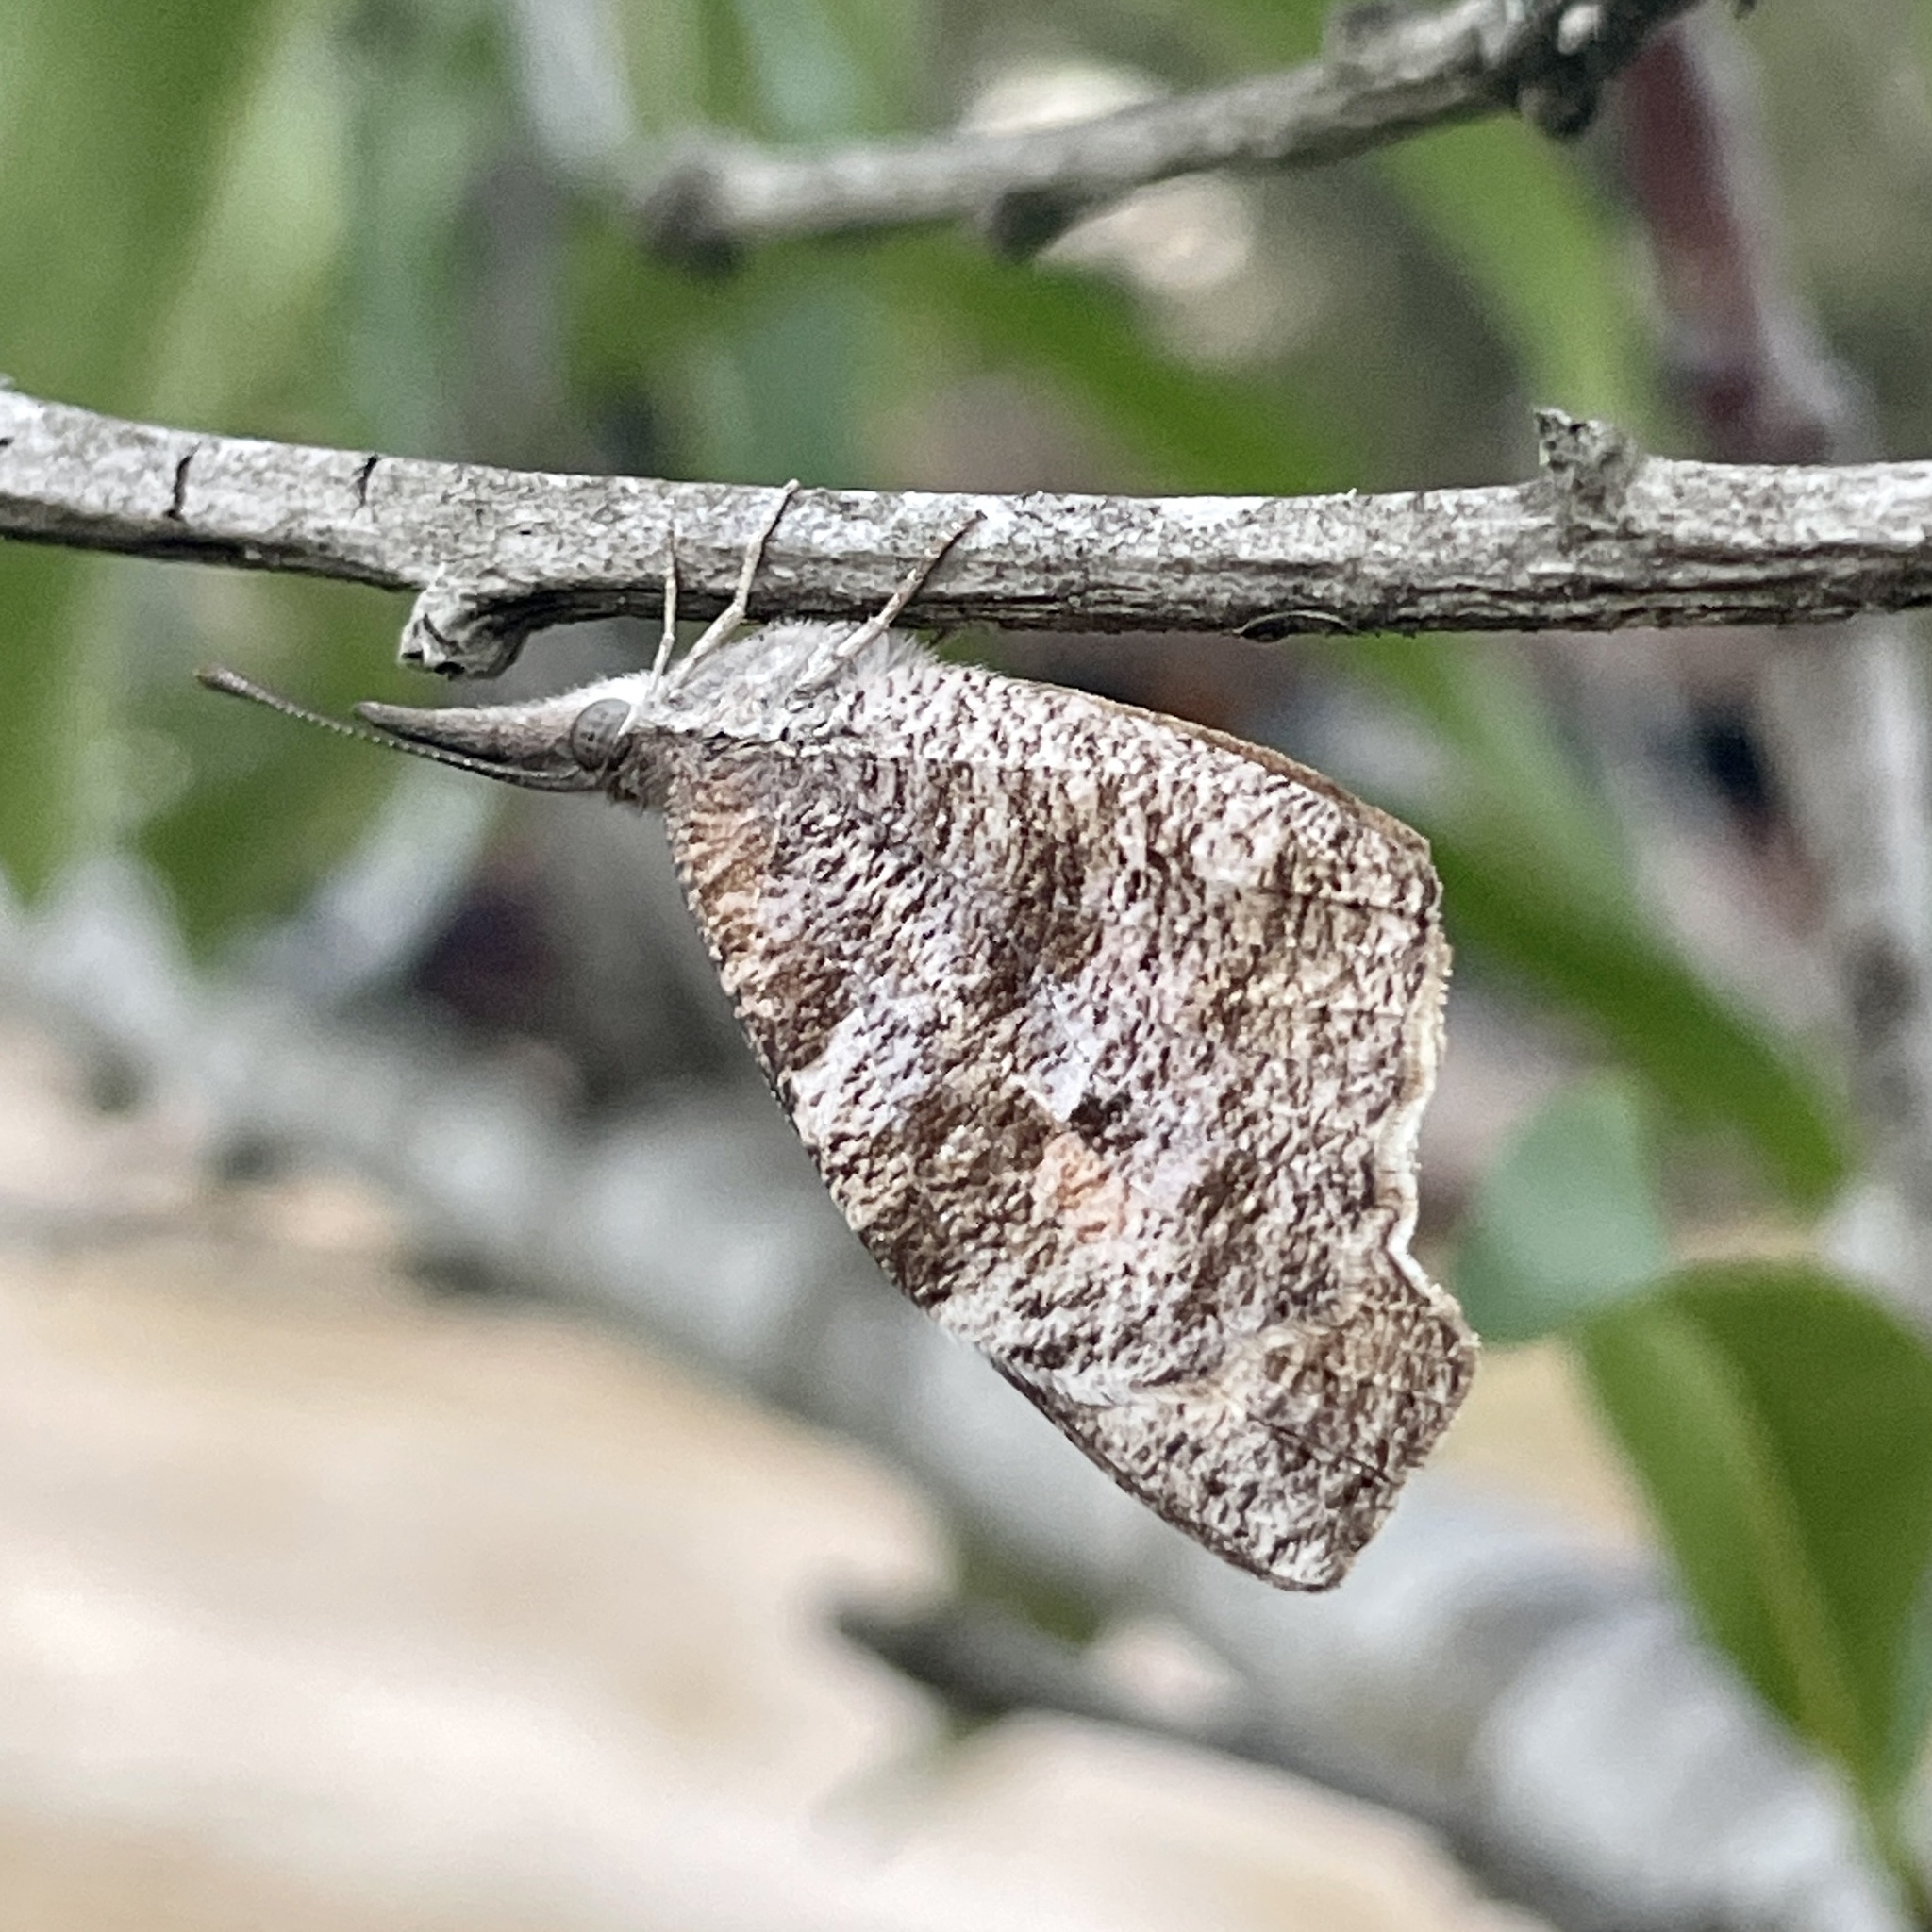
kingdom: Animalia
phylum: Arthropoda
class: Insecta
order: Lepidoptera
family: Nymphalidae
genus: Libytheana
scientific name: Libytheana carinenta
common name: American snout
